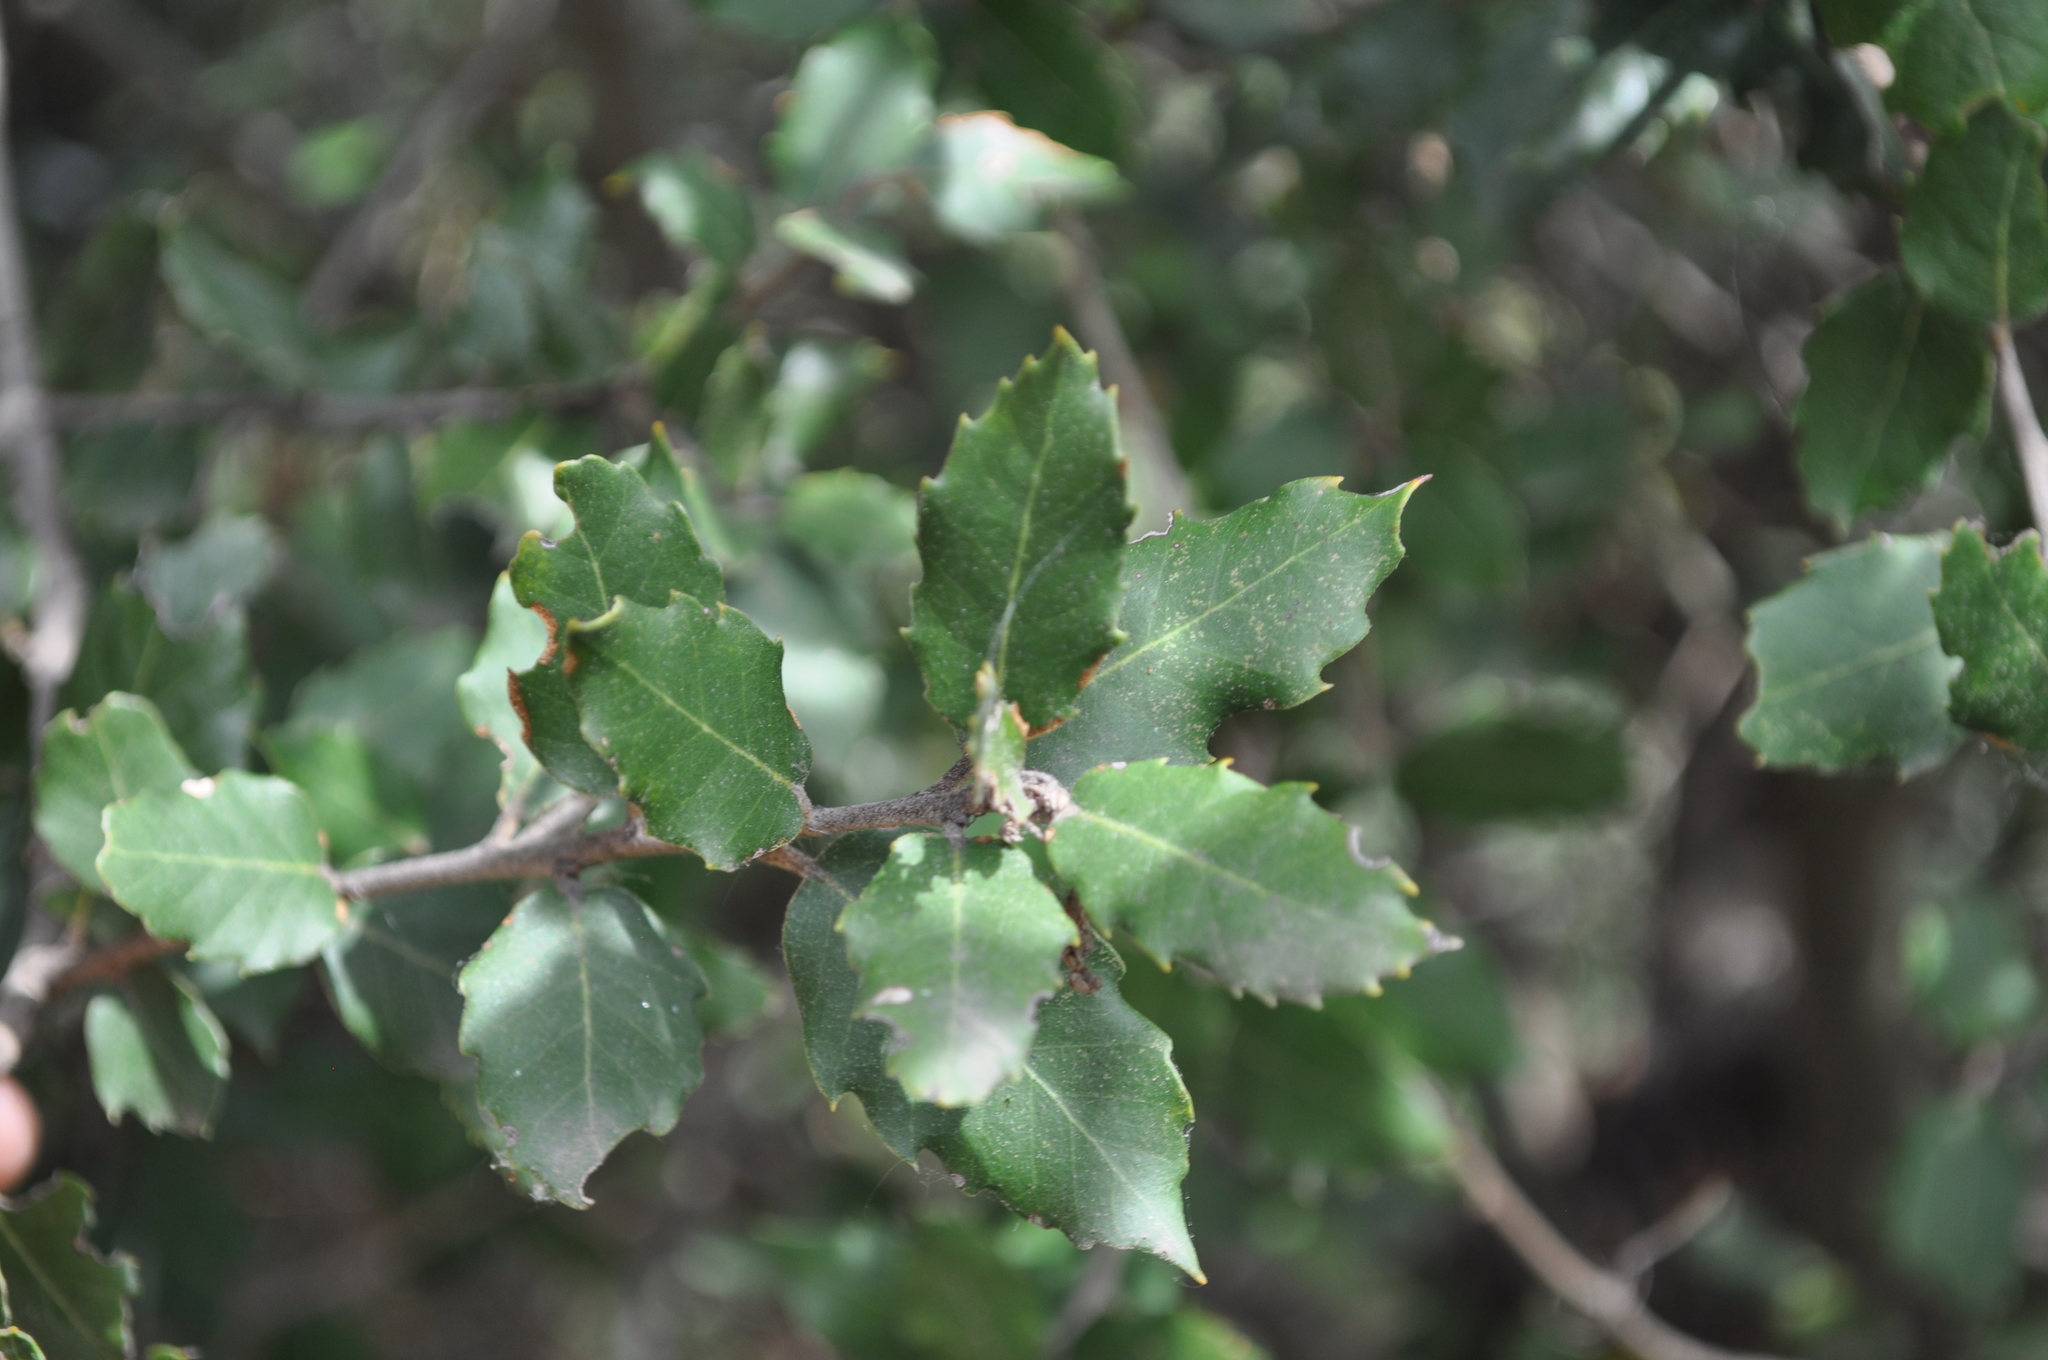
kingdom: Plantae
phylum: Tracheophyta
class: Magnoliopsida
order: Fagales
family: Fagaceae
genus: Quercus
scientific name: Quercus ilex
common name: Evergreen oak
